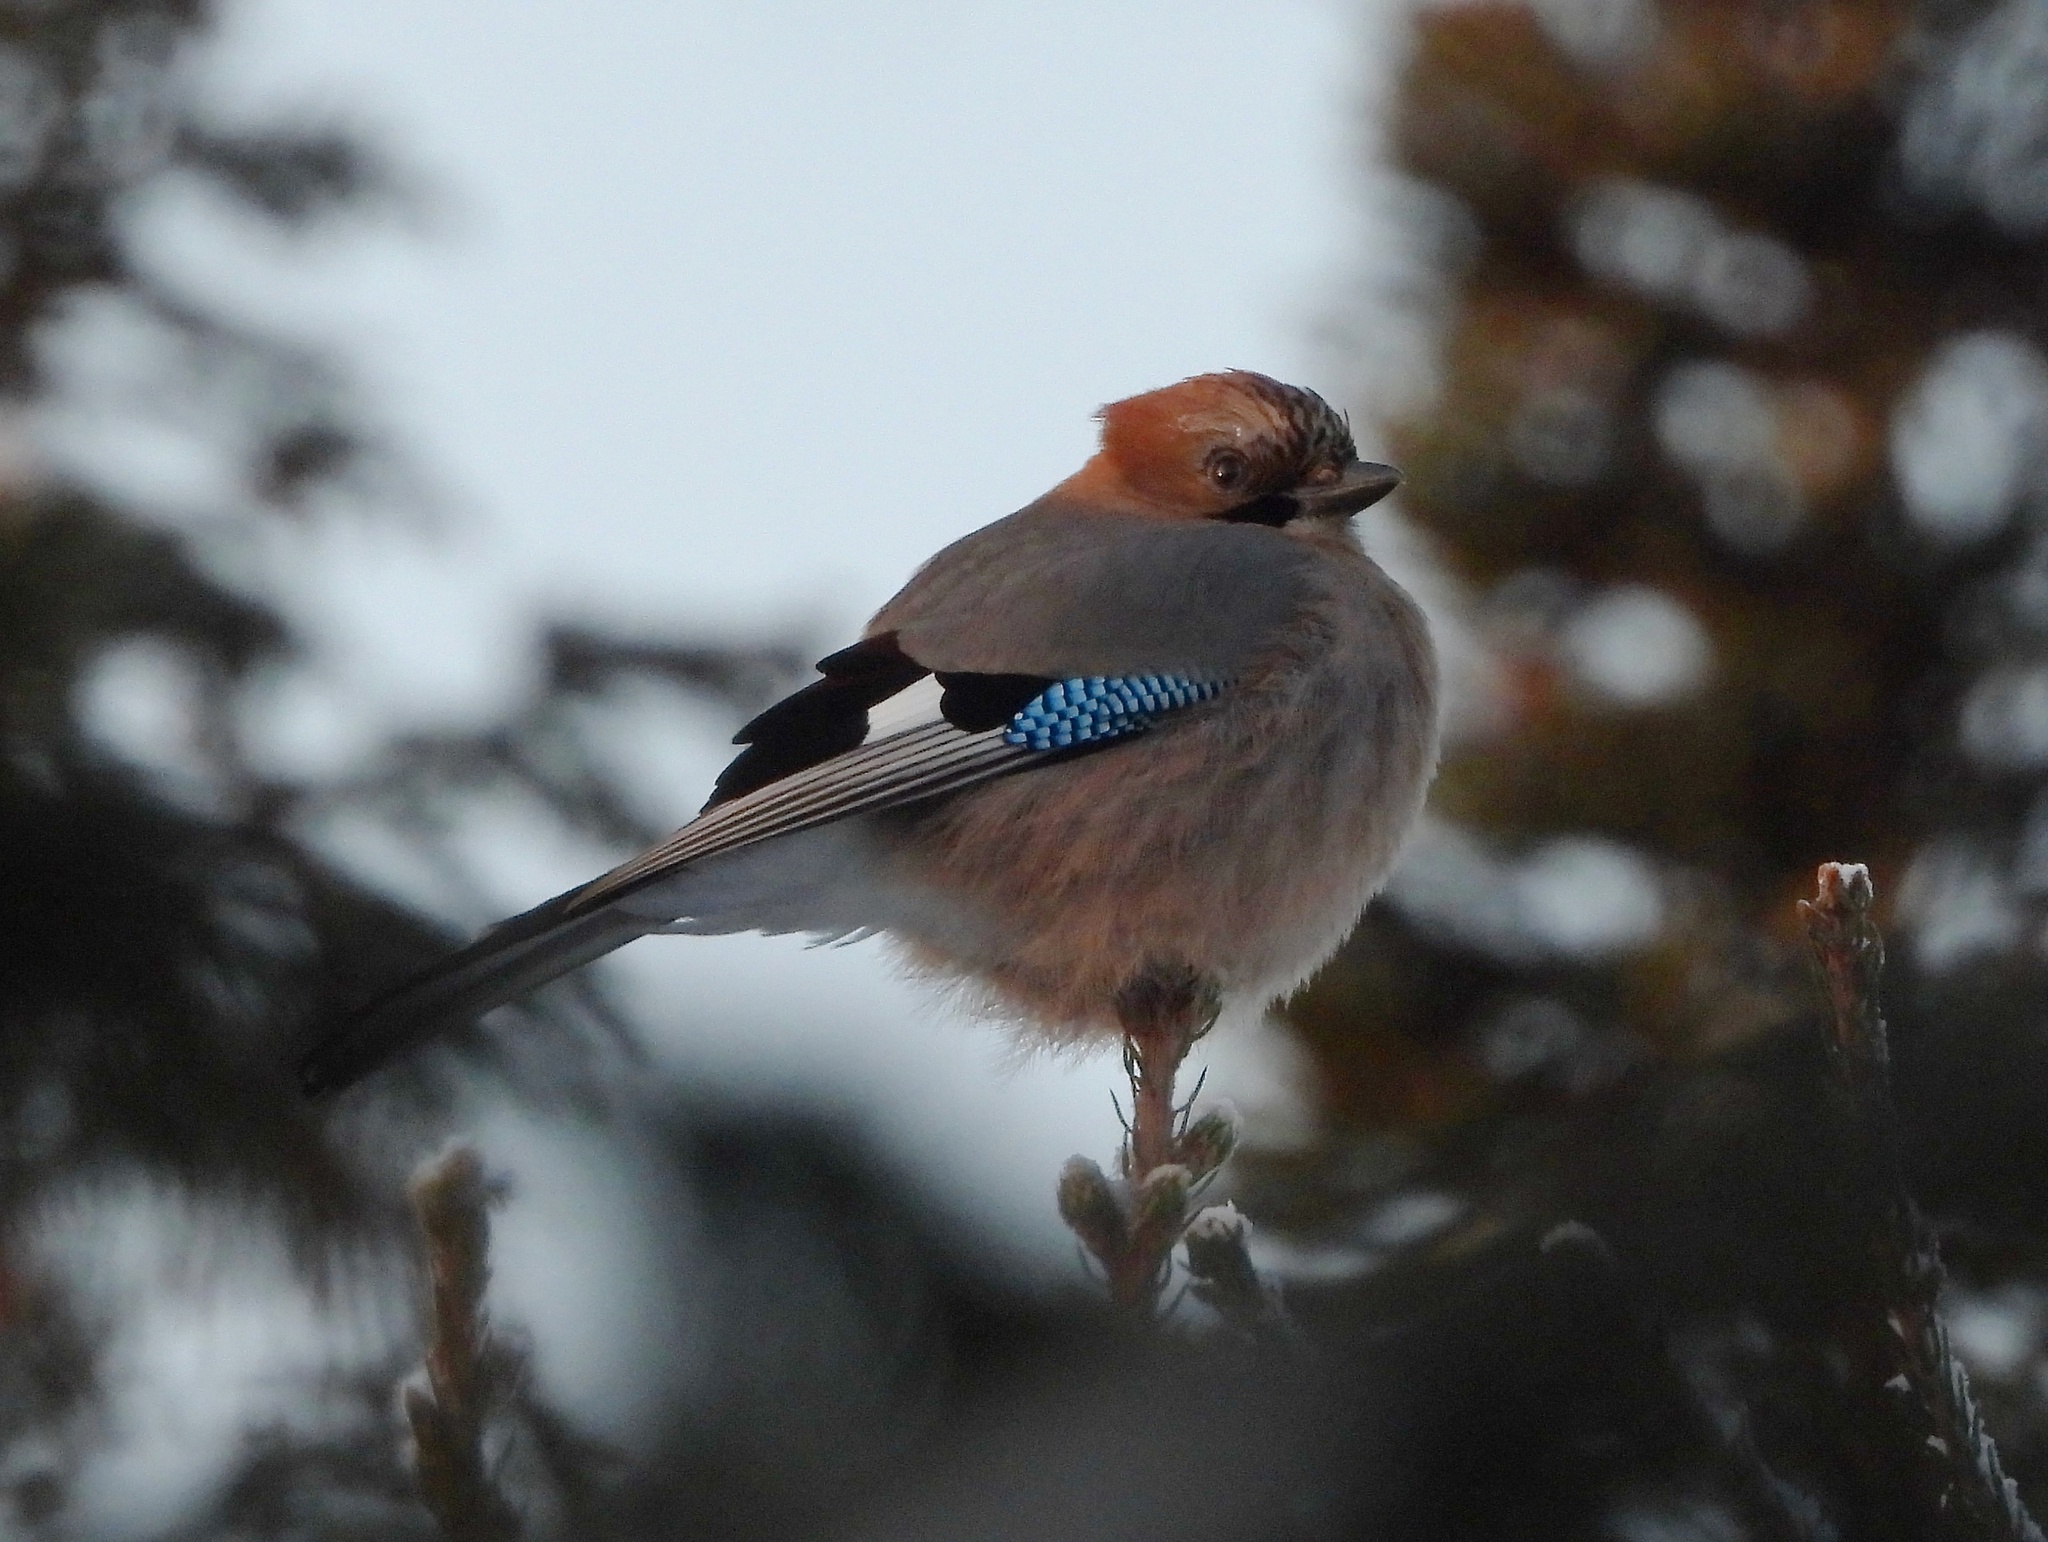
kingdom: Animalia
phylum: Chordata
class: Aves
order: Passeriformes
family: Corvidae
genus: Garrulus
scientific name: Garrulus glandarius
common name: Eurasian jay
